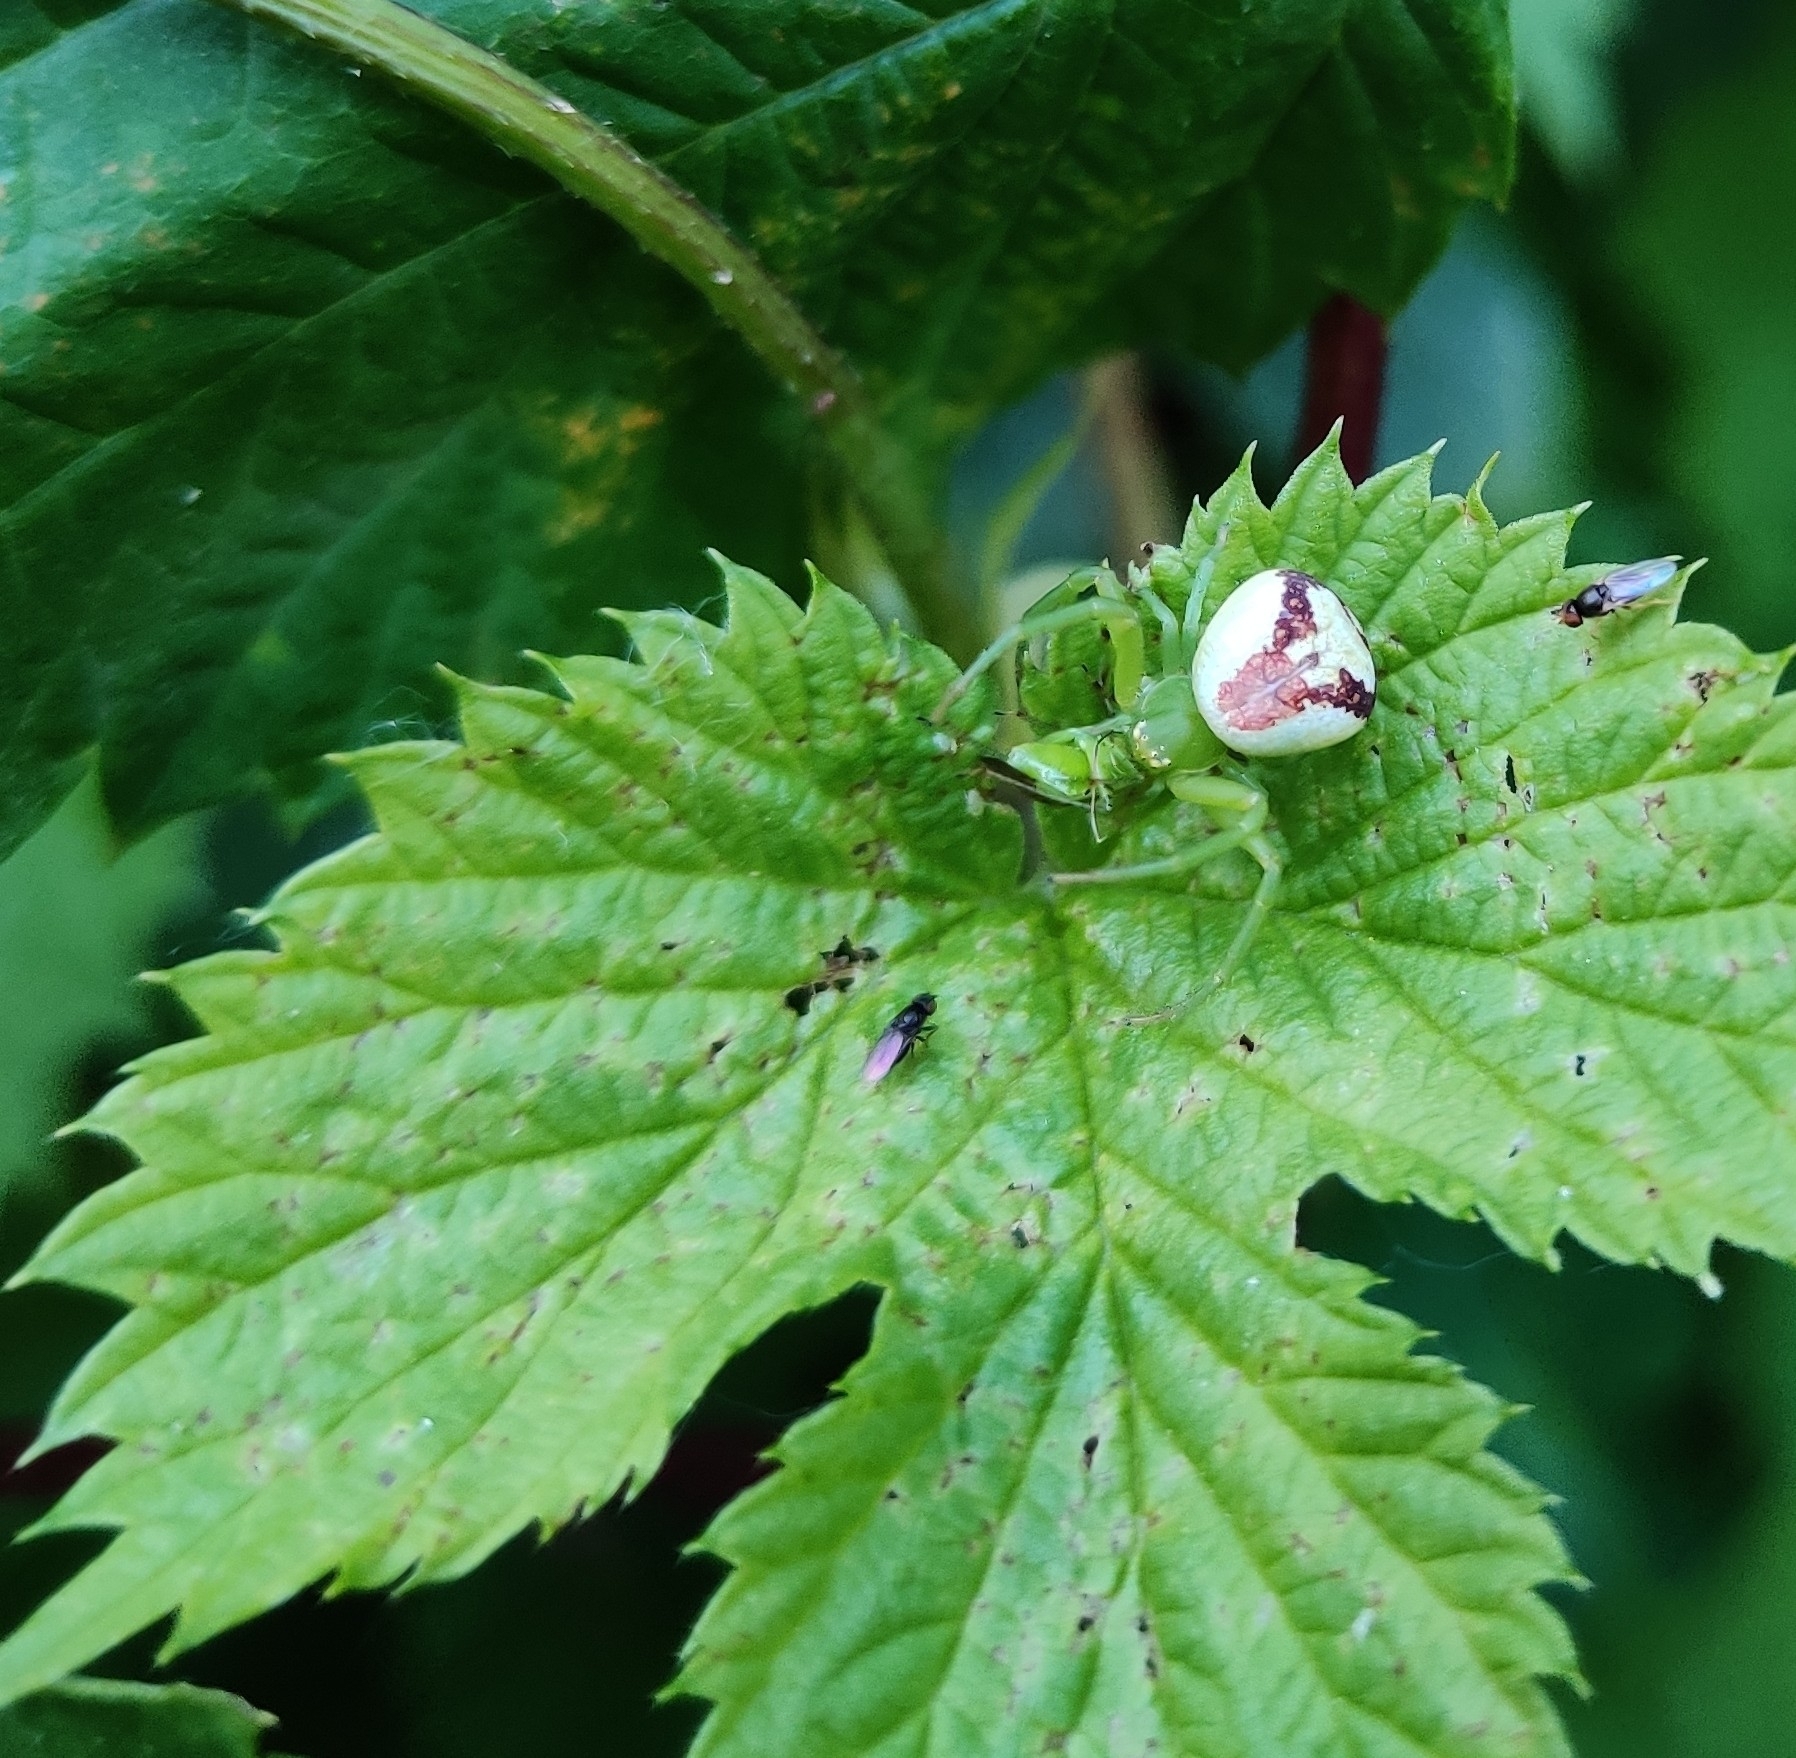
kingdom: Animalia
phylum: Arthropoda
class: Arachnida
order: Araneae
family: Thomisidae
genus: Ebrechtella
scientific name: Ebrechtella tricuspidata
